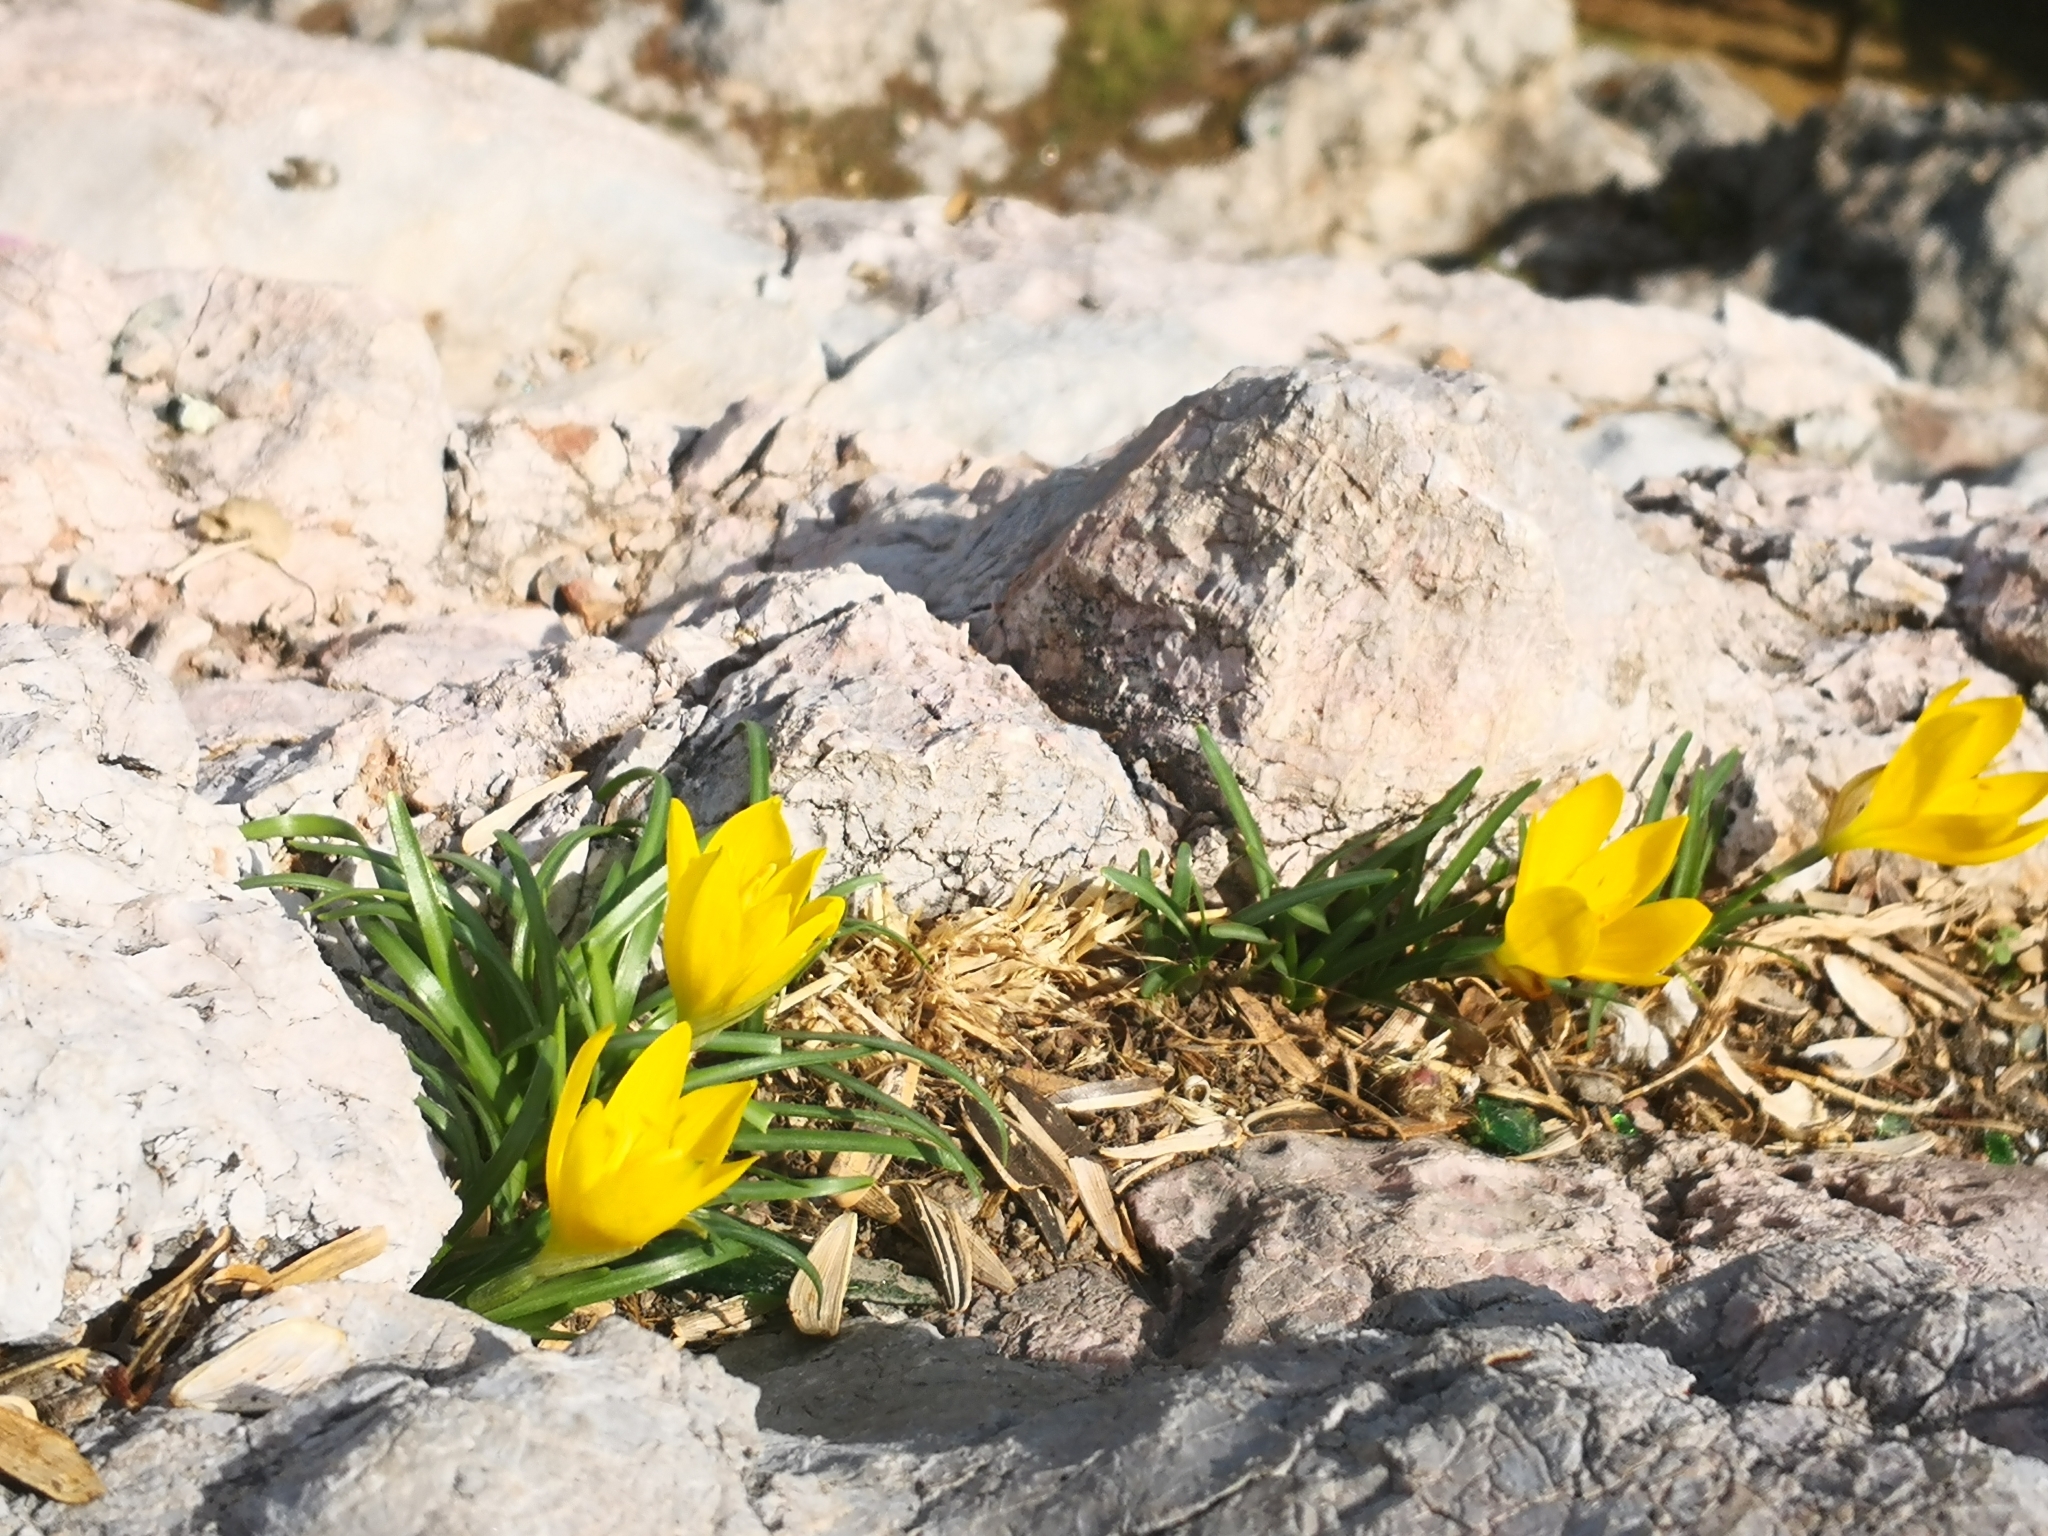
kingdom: Plantae
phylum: Tracheophyta
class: Liliopsida
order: Asparagales
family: Amaryllidaceae
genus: Sternbergia
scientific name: Sternbergia lutea
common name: Winter daffodil
